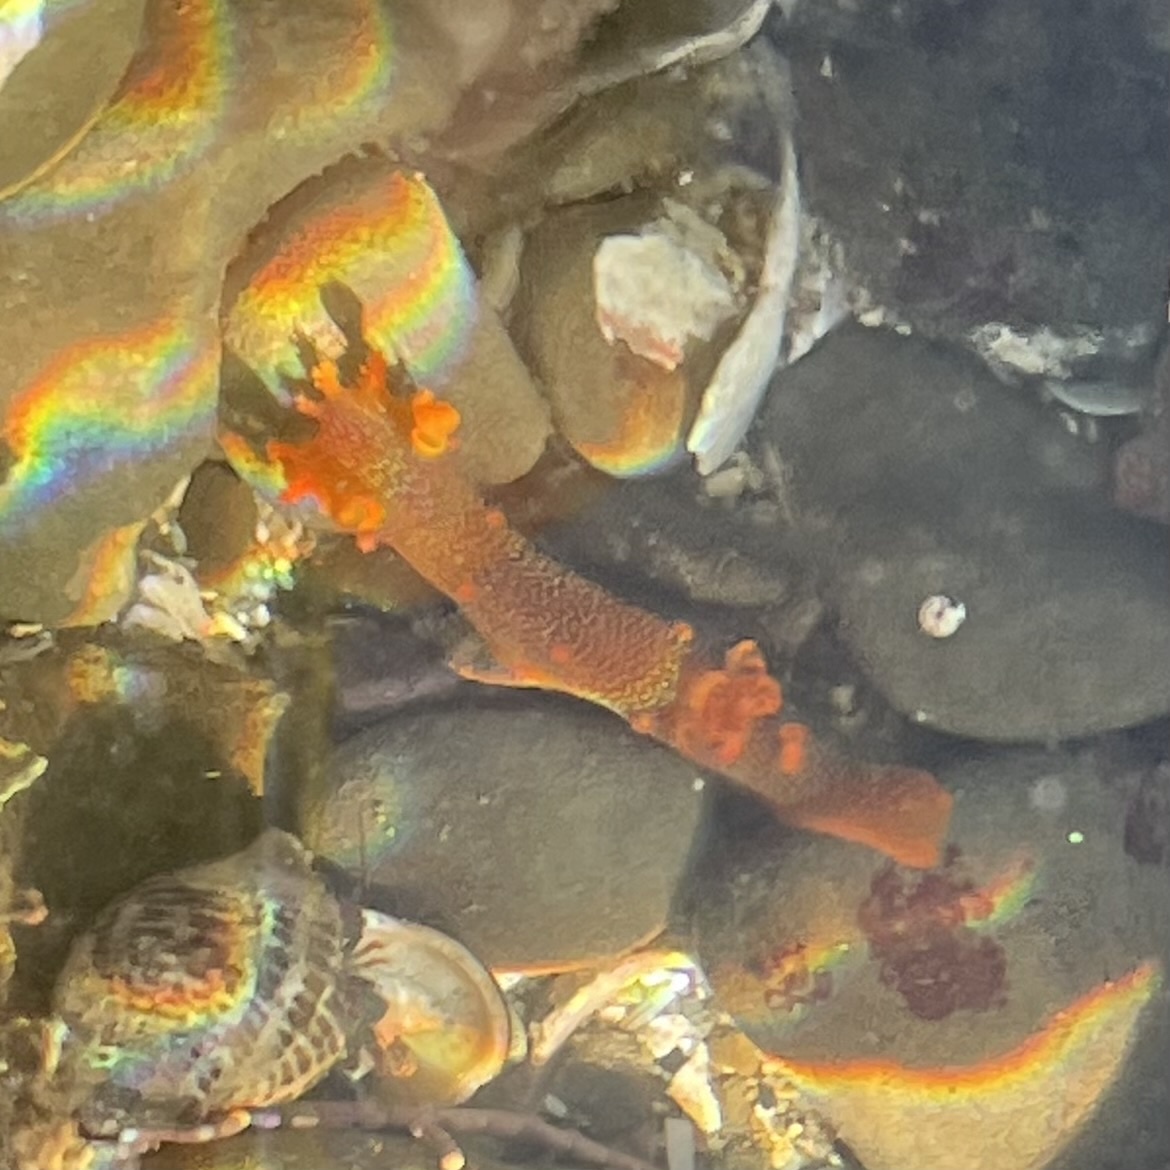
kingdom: Animalia
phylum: Mollusca
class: Gastropoda
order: Nudibranchia
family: Polyceridae
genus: Triopha
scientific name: Triopha maculata
